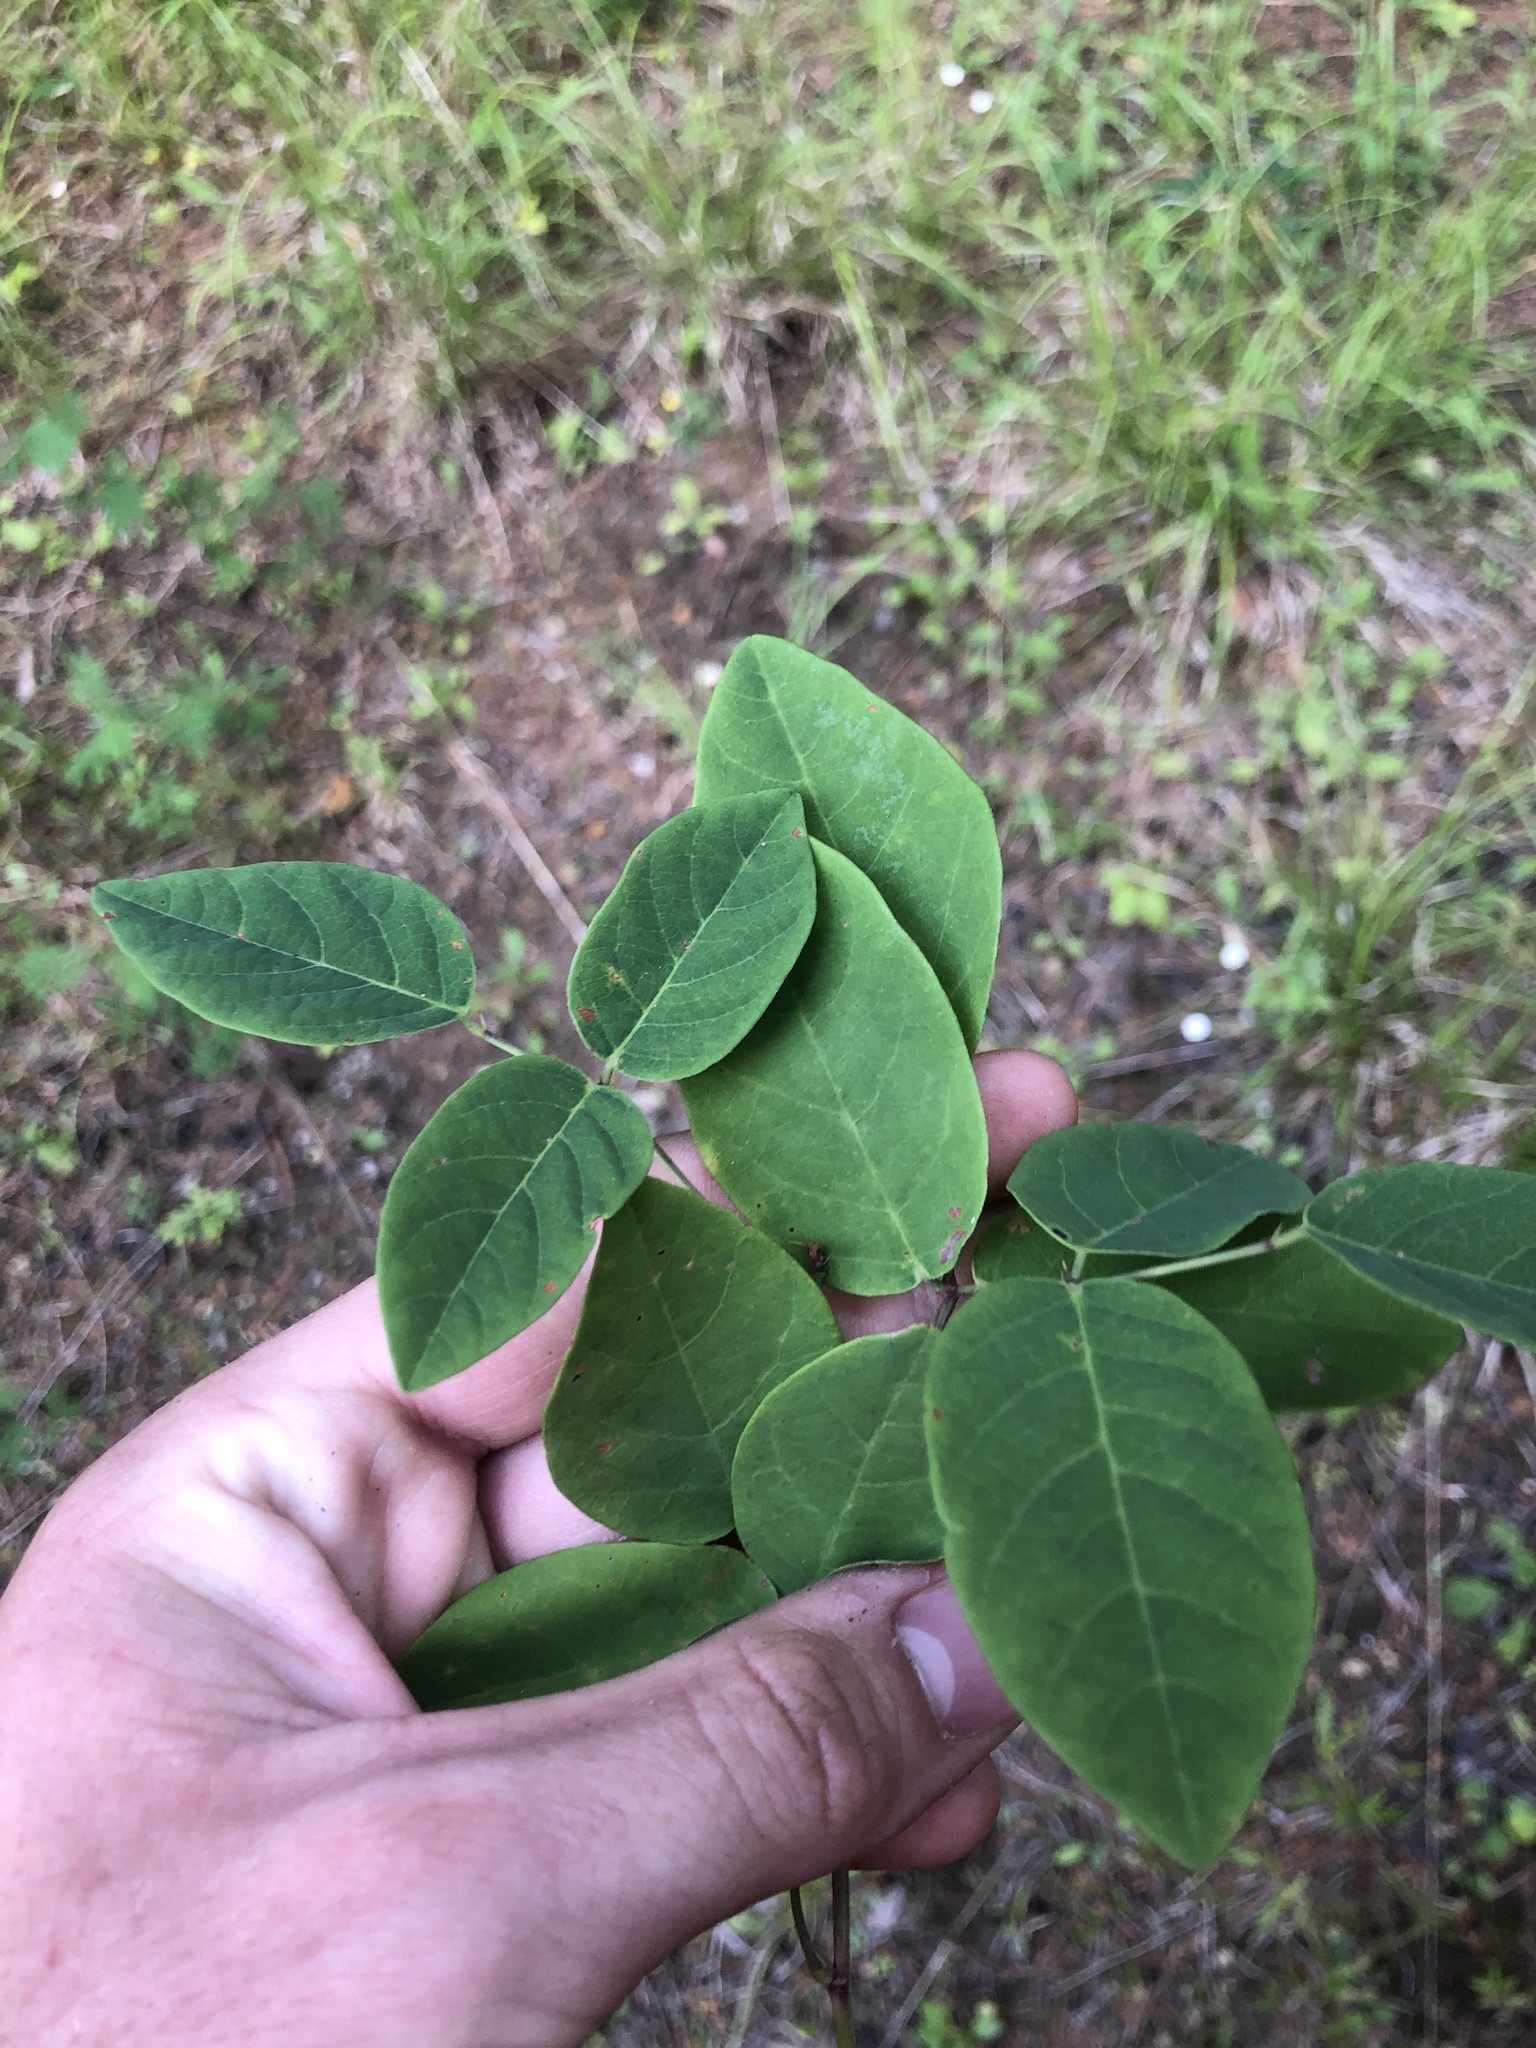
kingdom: Plantae
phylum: Tracheophyta
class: Magnoliopsida
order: Fabales
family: Fabaceae
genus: Desmodium
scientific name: Desmodium laevigatum
